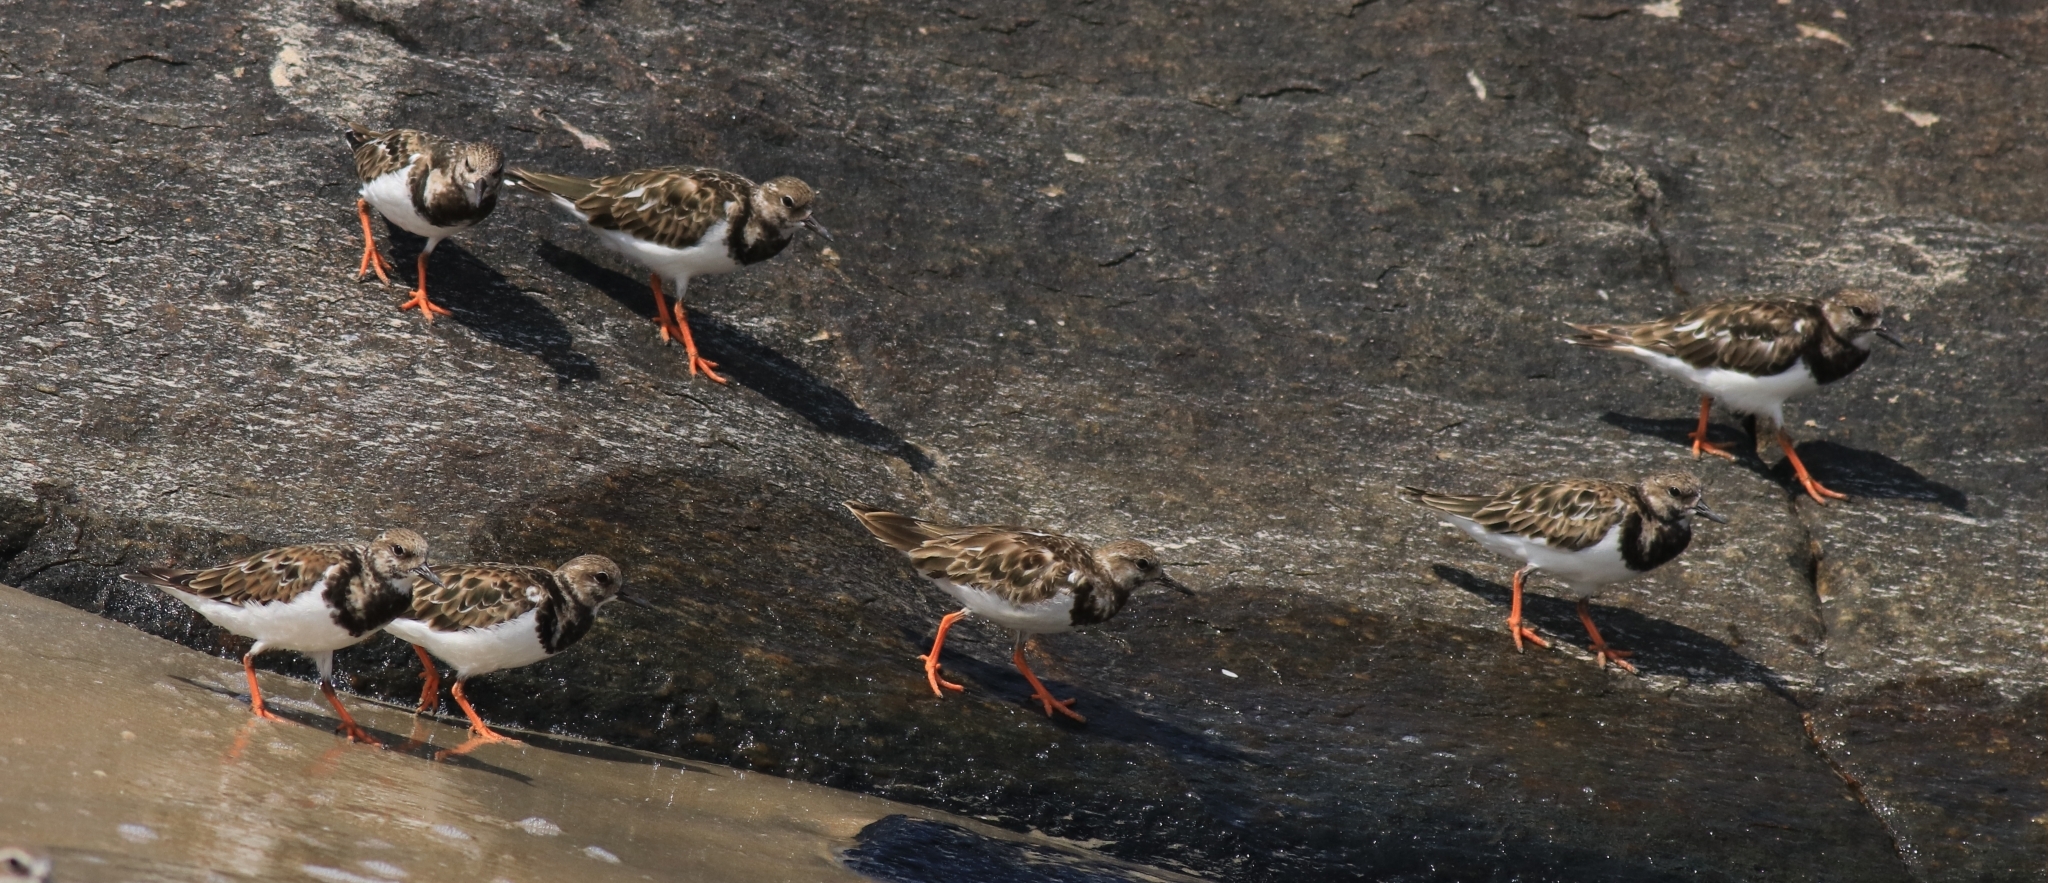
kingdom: Animalia
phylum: Chordata
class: Aves
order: Charadriiformes
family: Scolopacidae
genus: Arenaria
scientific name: Arenaria interpres
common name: Ruddy turnstone
